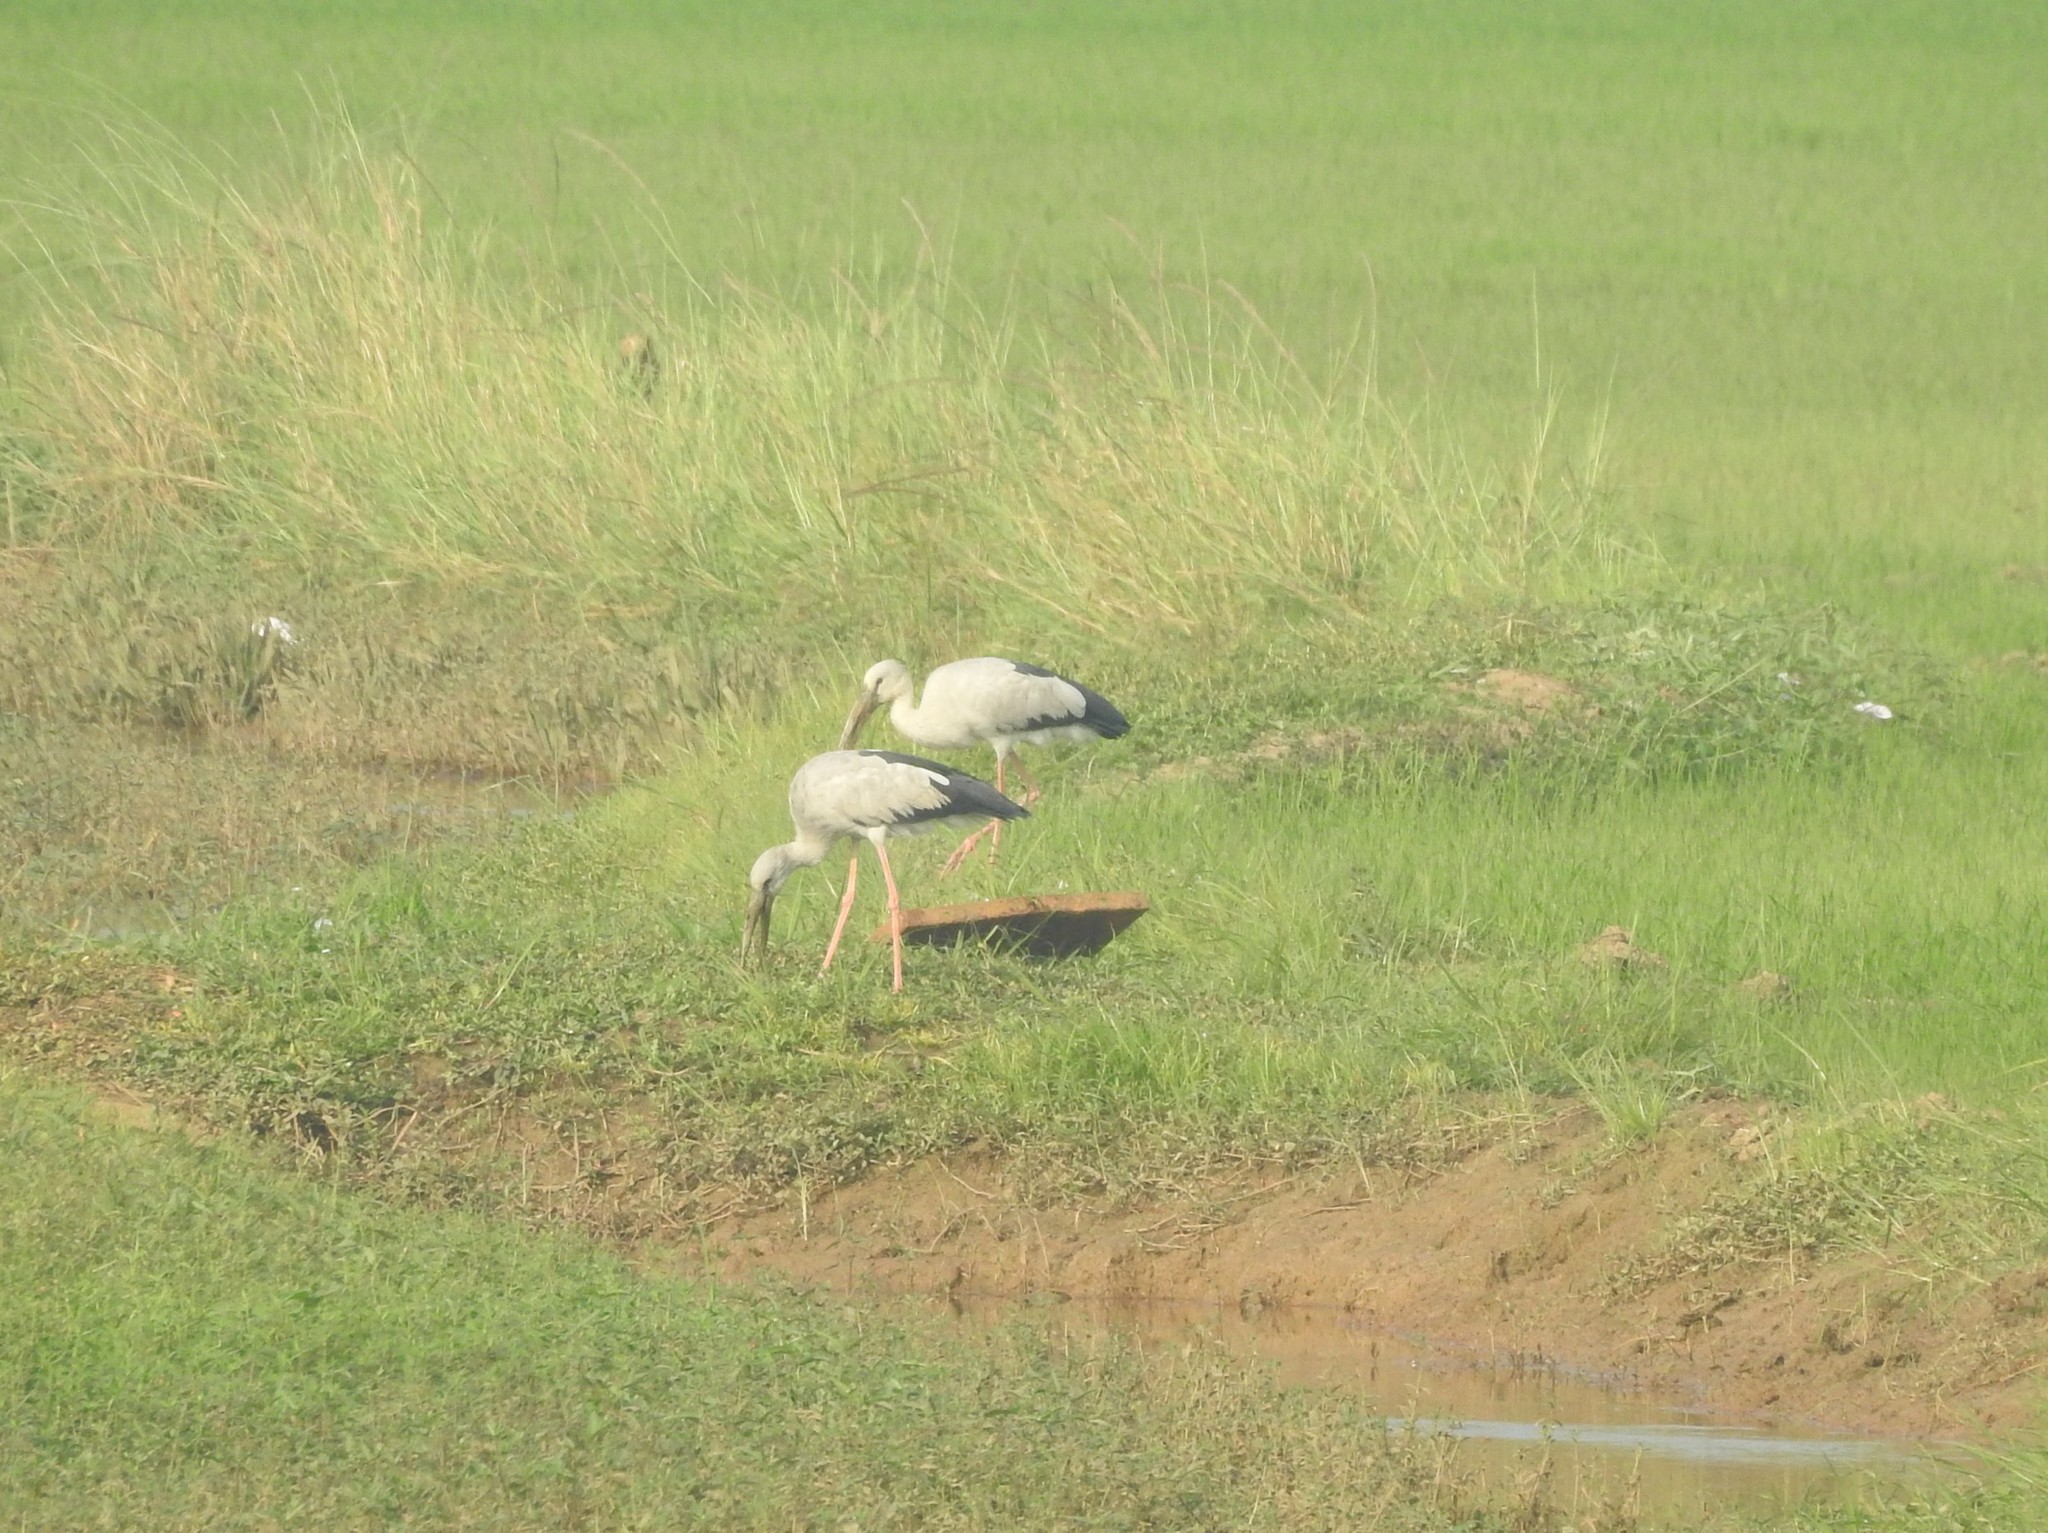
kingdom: Animalia
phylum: Chordata
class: Aves
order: Ciconiiformes
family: Ciconiidae
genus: Anastomus
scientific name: Anastomus oscitans
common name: Asian openbill
